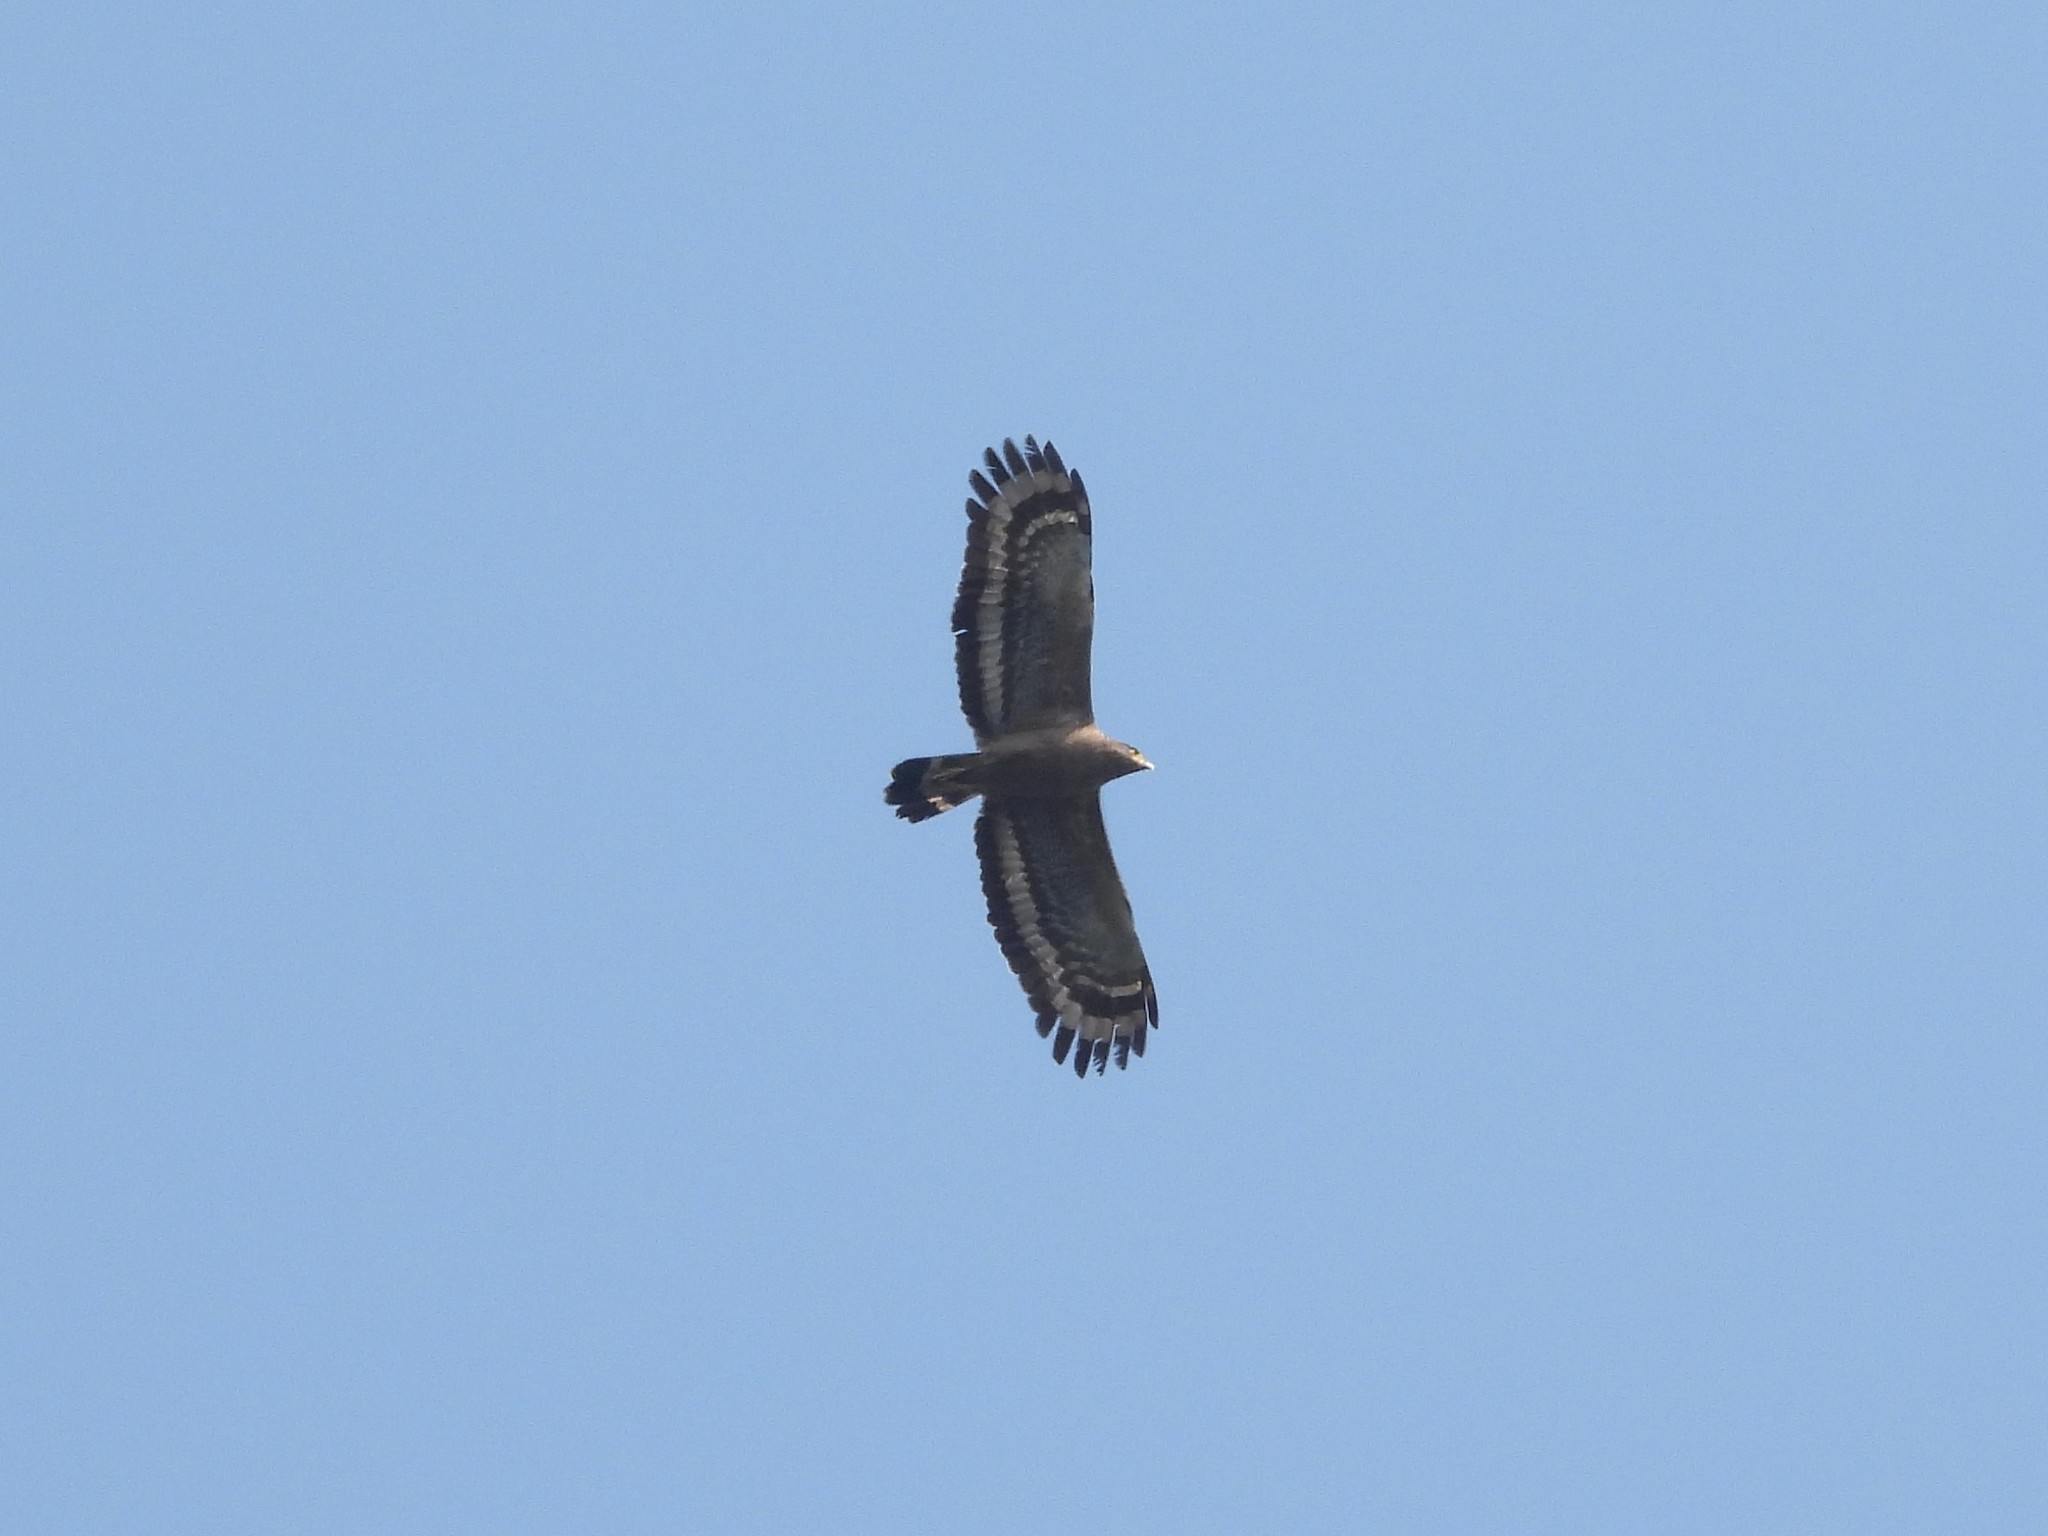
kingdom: Animalia
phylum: Chordata
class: Aves
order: Accipitriformes
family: Accipitridae
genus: Spilornis
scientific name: Spilornis cheela
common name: Crested serpent eagle
